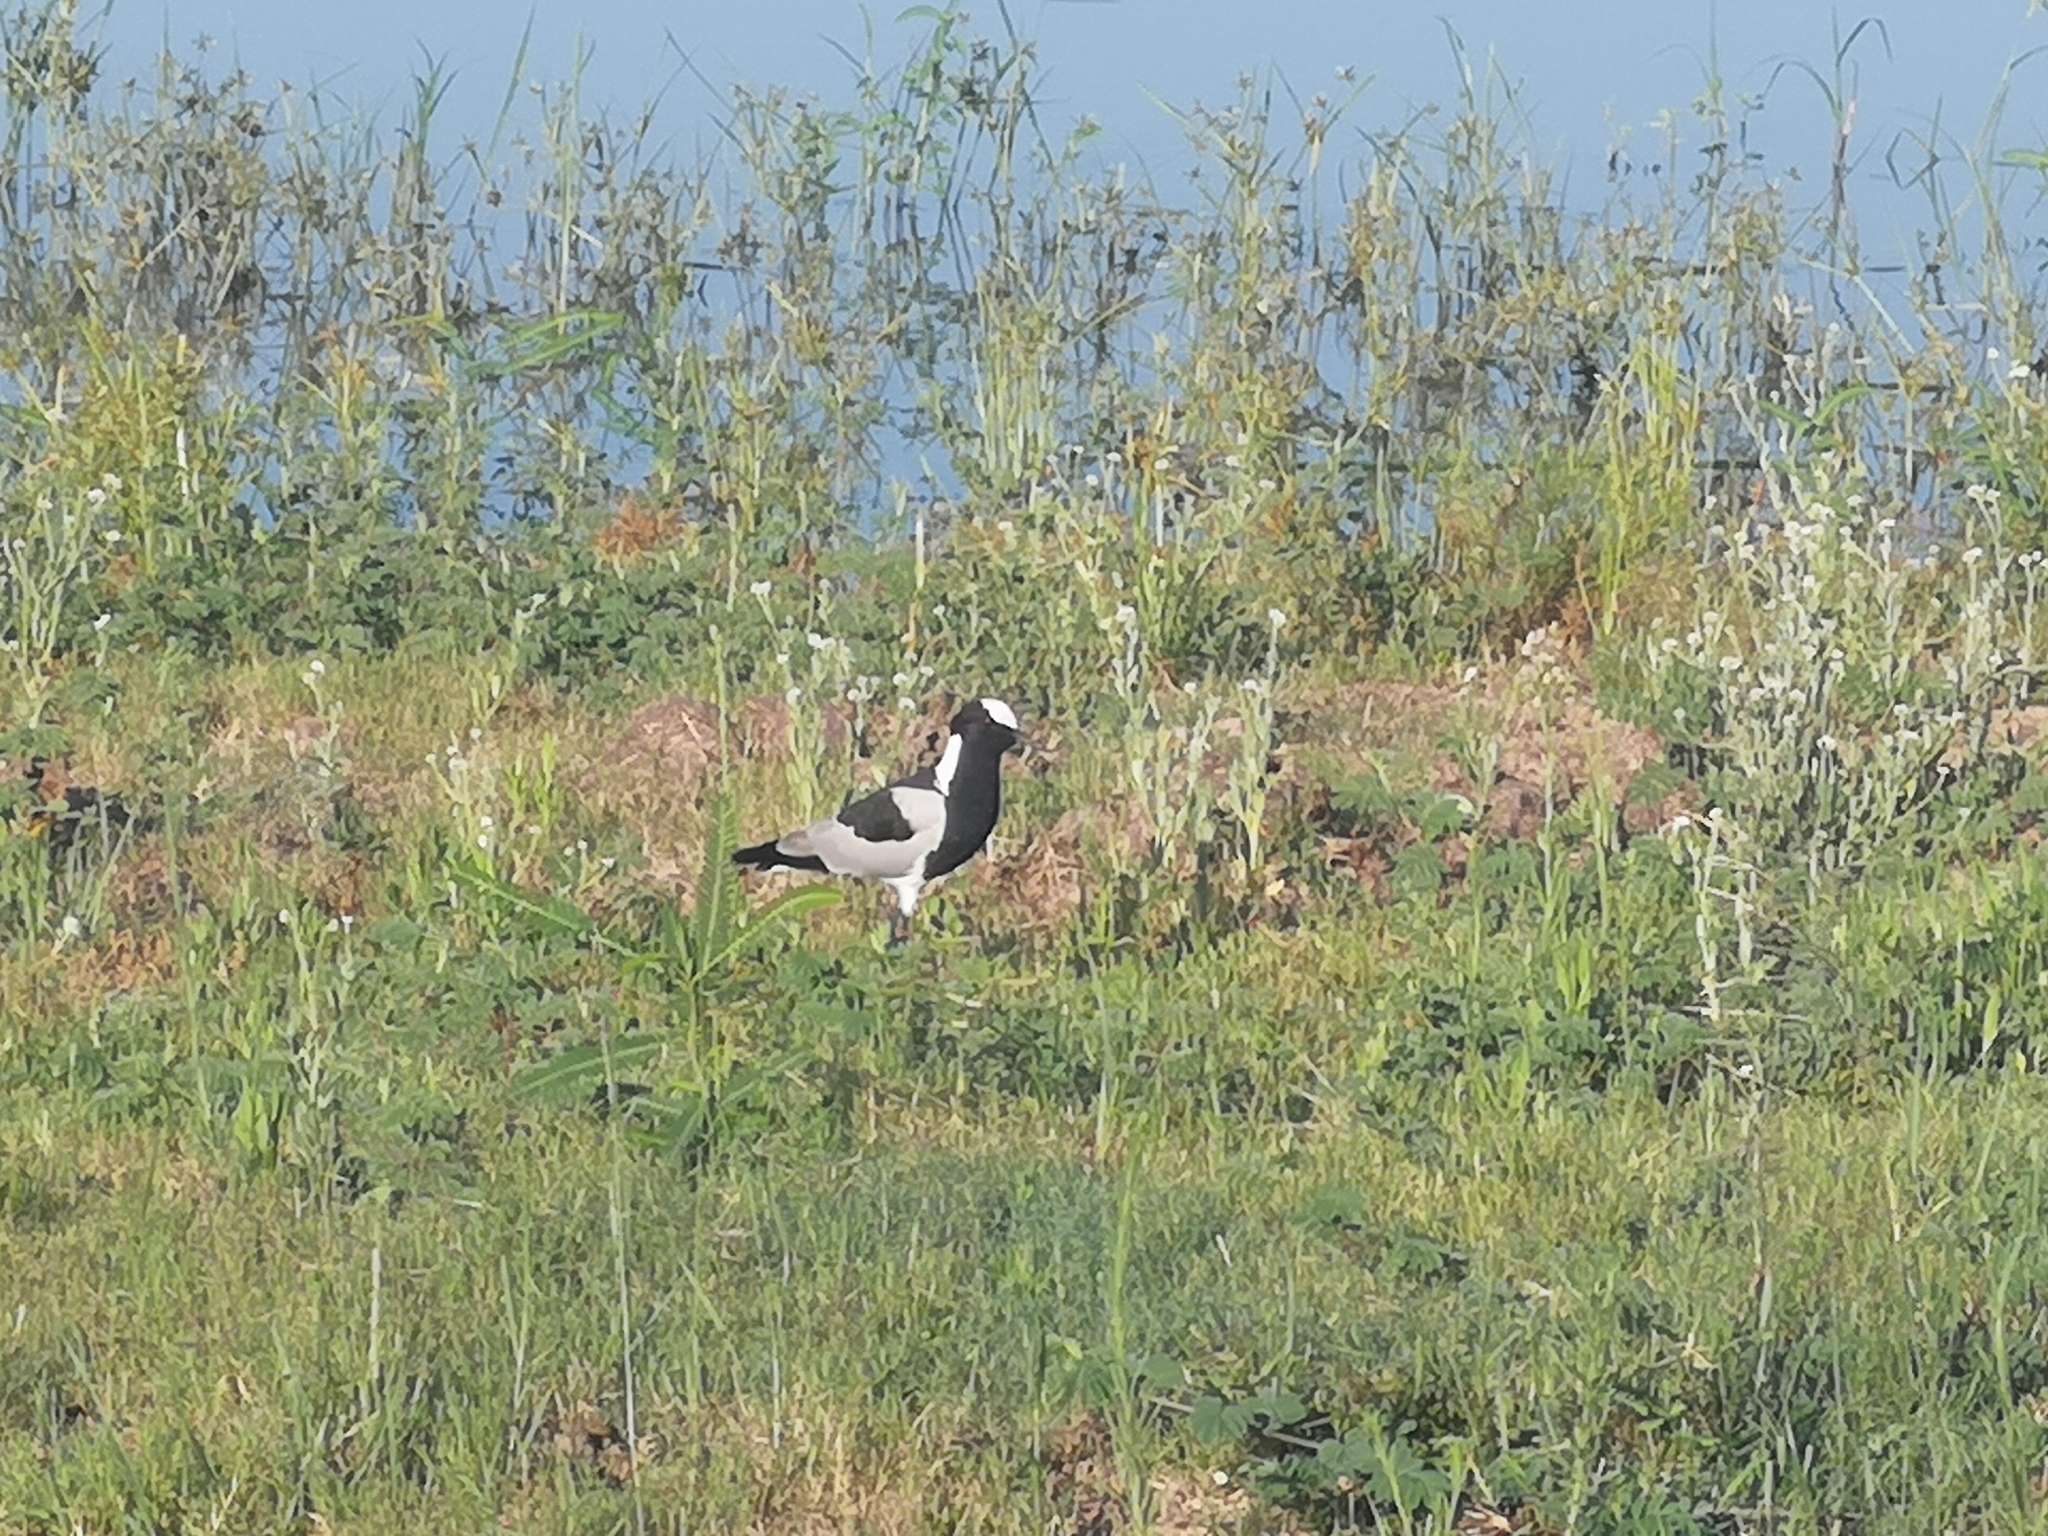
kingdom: Animalia
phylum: Chordata
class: Aves
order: Charadriiformes
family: Charadriidae
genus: Vanellus
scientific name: Vanellus armatus
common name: Blacksmith lapwing
